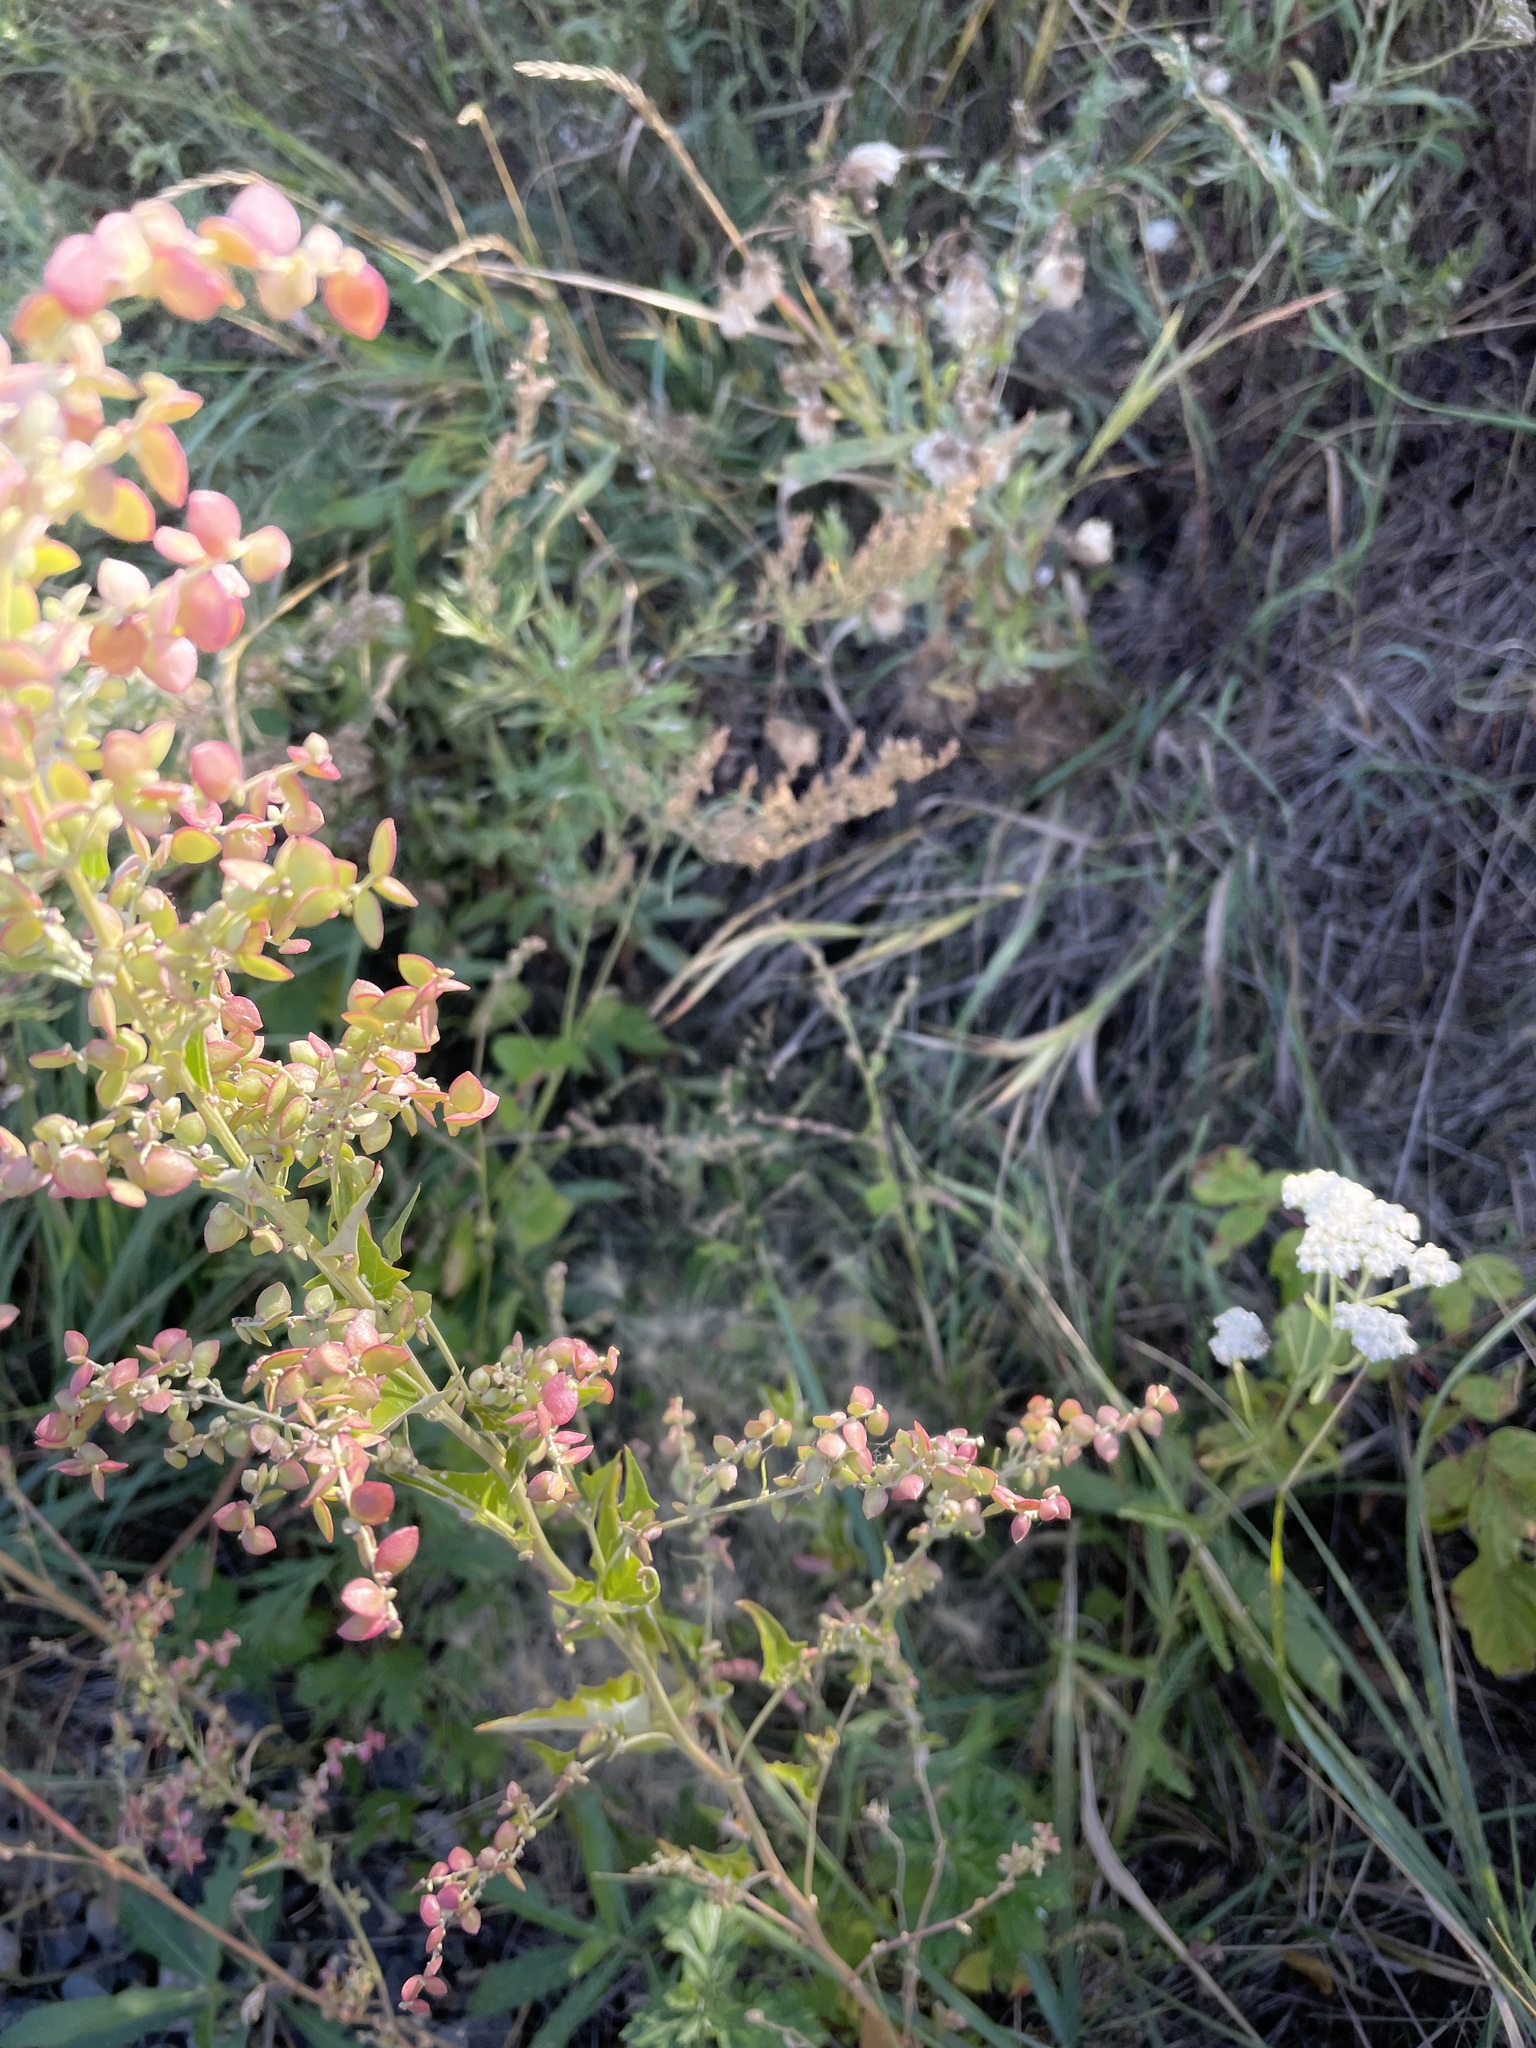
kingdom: Plantae
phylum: Tracheophyta
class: Magnoliopsida
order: Caryophyllales
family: Amaranthaceae
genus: Atriplex
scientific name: Atriplex sagittata
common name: Purple orache
